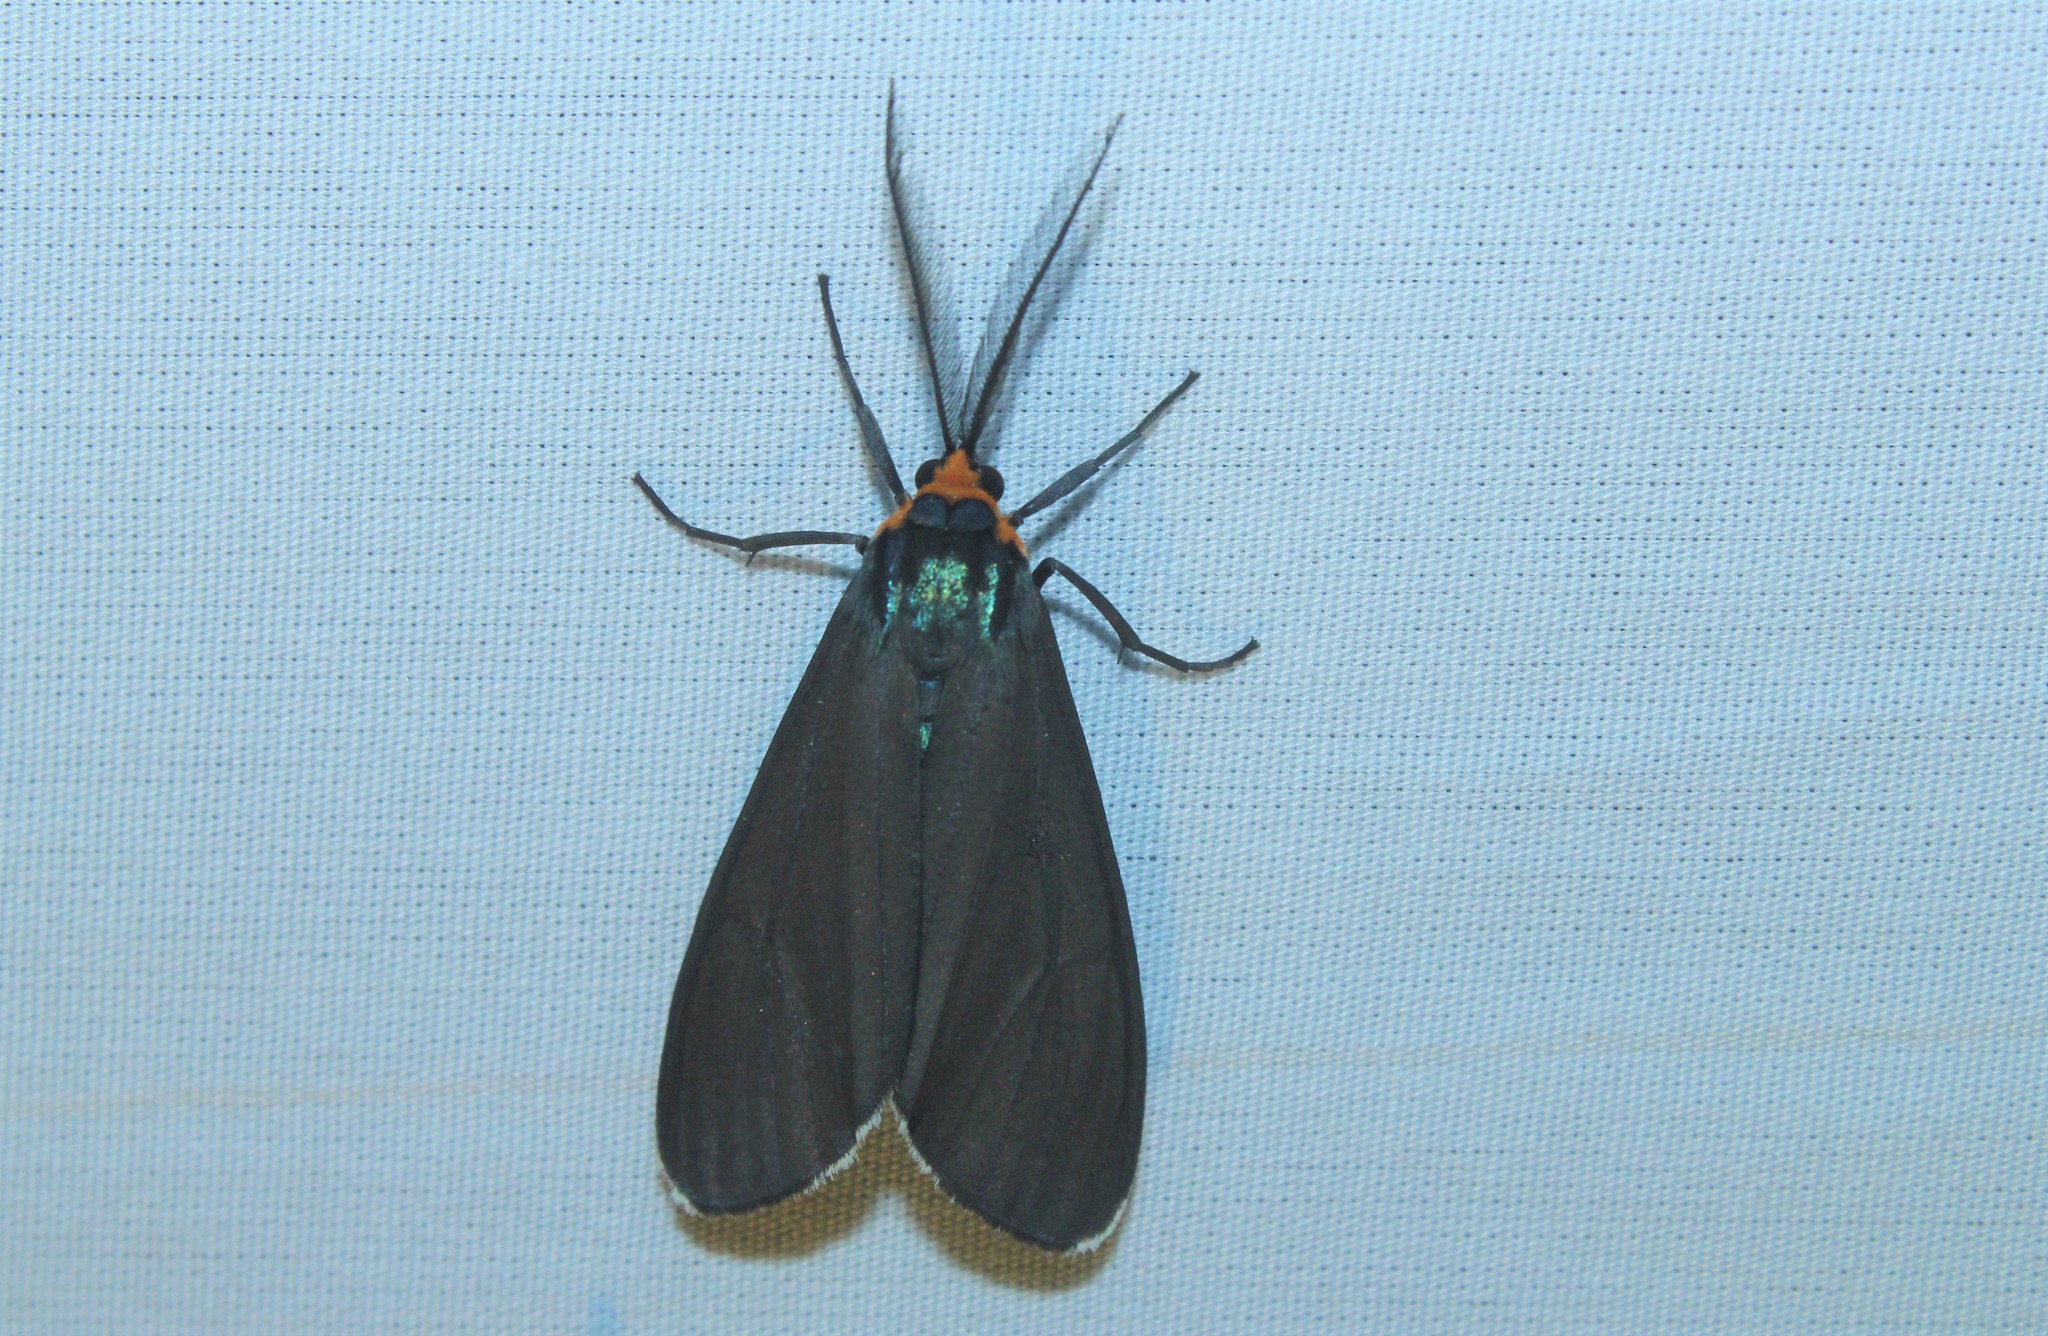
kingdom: Animalia
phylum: Arthropoda
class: Insecta
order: Lepidoptera
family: Erebidae
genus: Ctenucha
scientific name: Ctenucha virginica
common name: Virginia ctenucha moth
